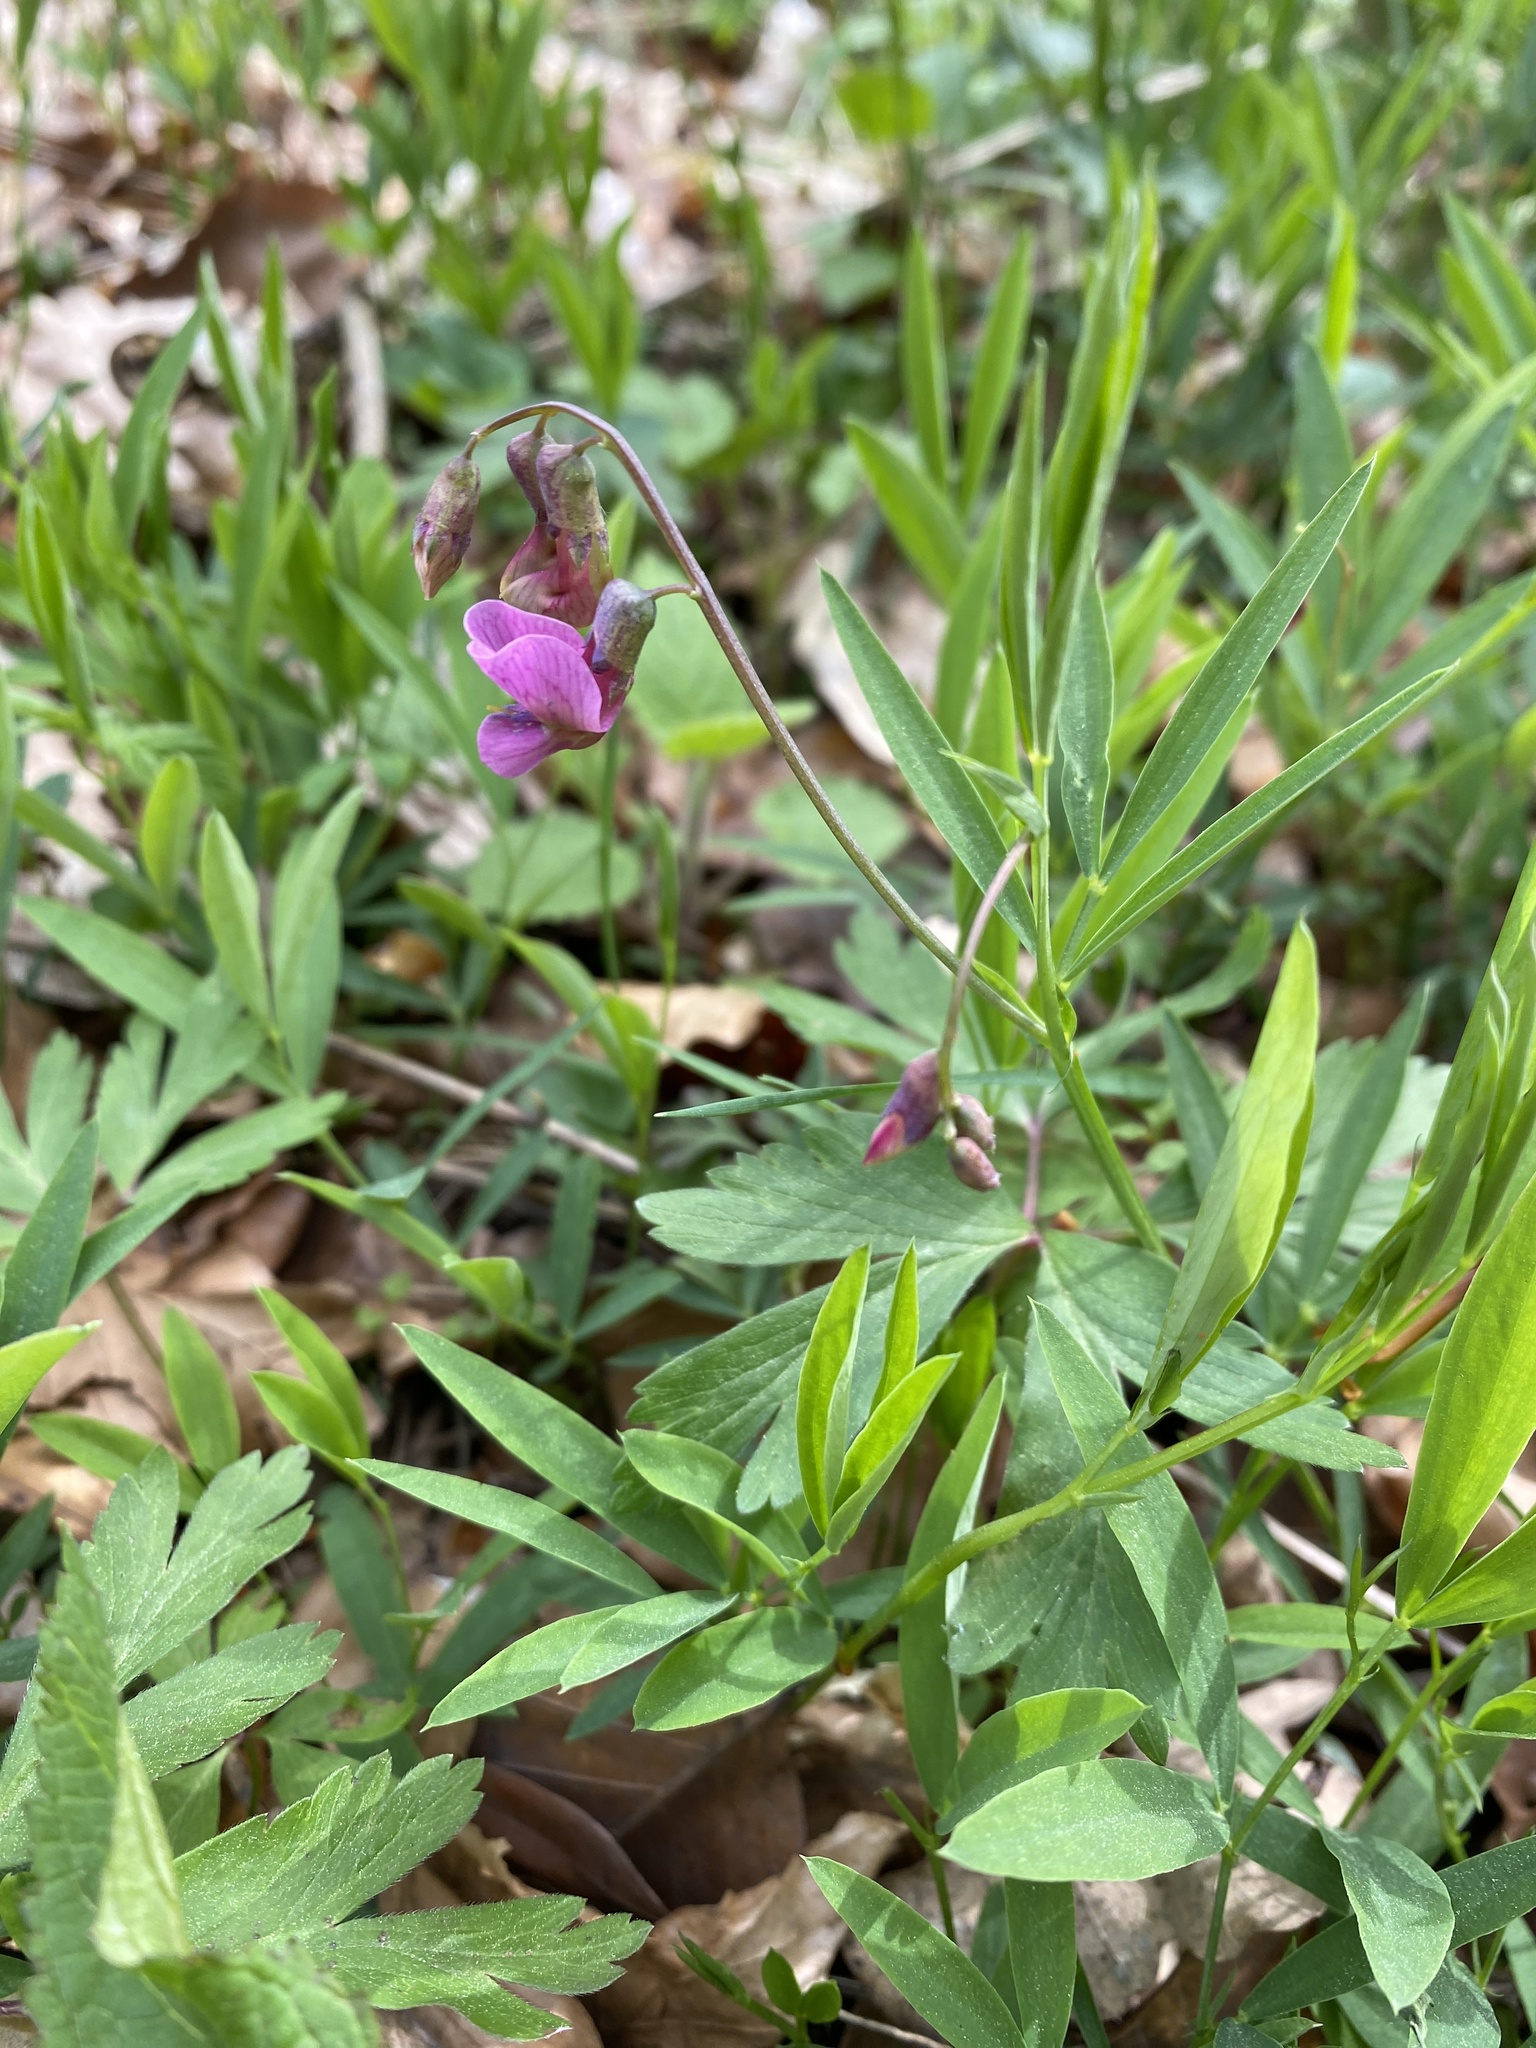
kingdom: Plantae
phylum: Tracheophyta
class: Magnoliopsida
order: Fabales
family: Fabaceae
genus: Lathyrus
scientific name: Lathyrus linifolius
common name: Bitter-vetch
